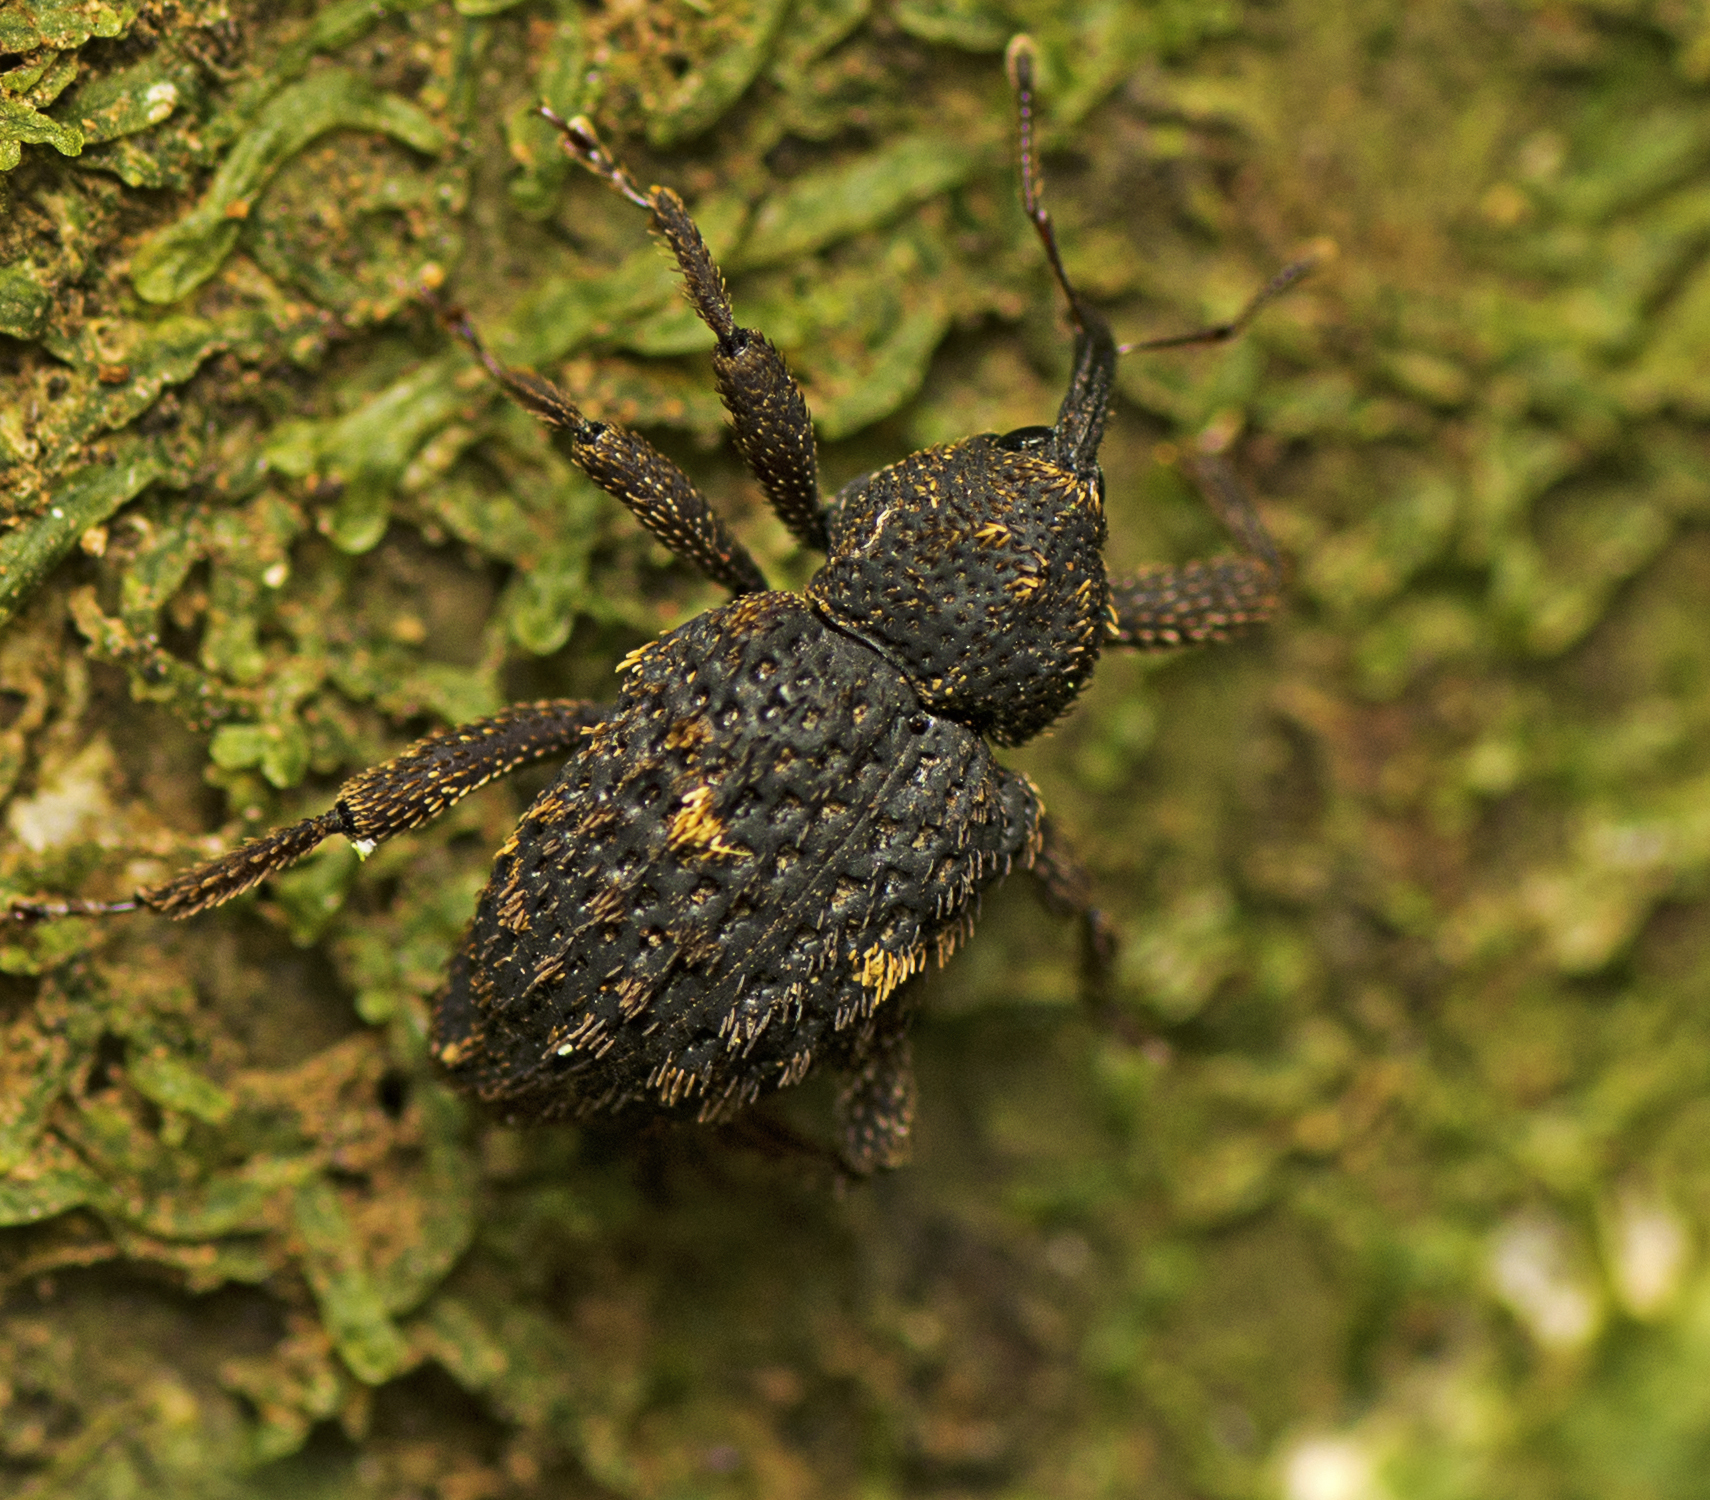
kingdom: Animalia
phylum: Arthropoda
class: Insecta
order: Coleoptera
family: Curculionidae
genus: Notocalviceps
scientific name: Notocalviceps rarus
